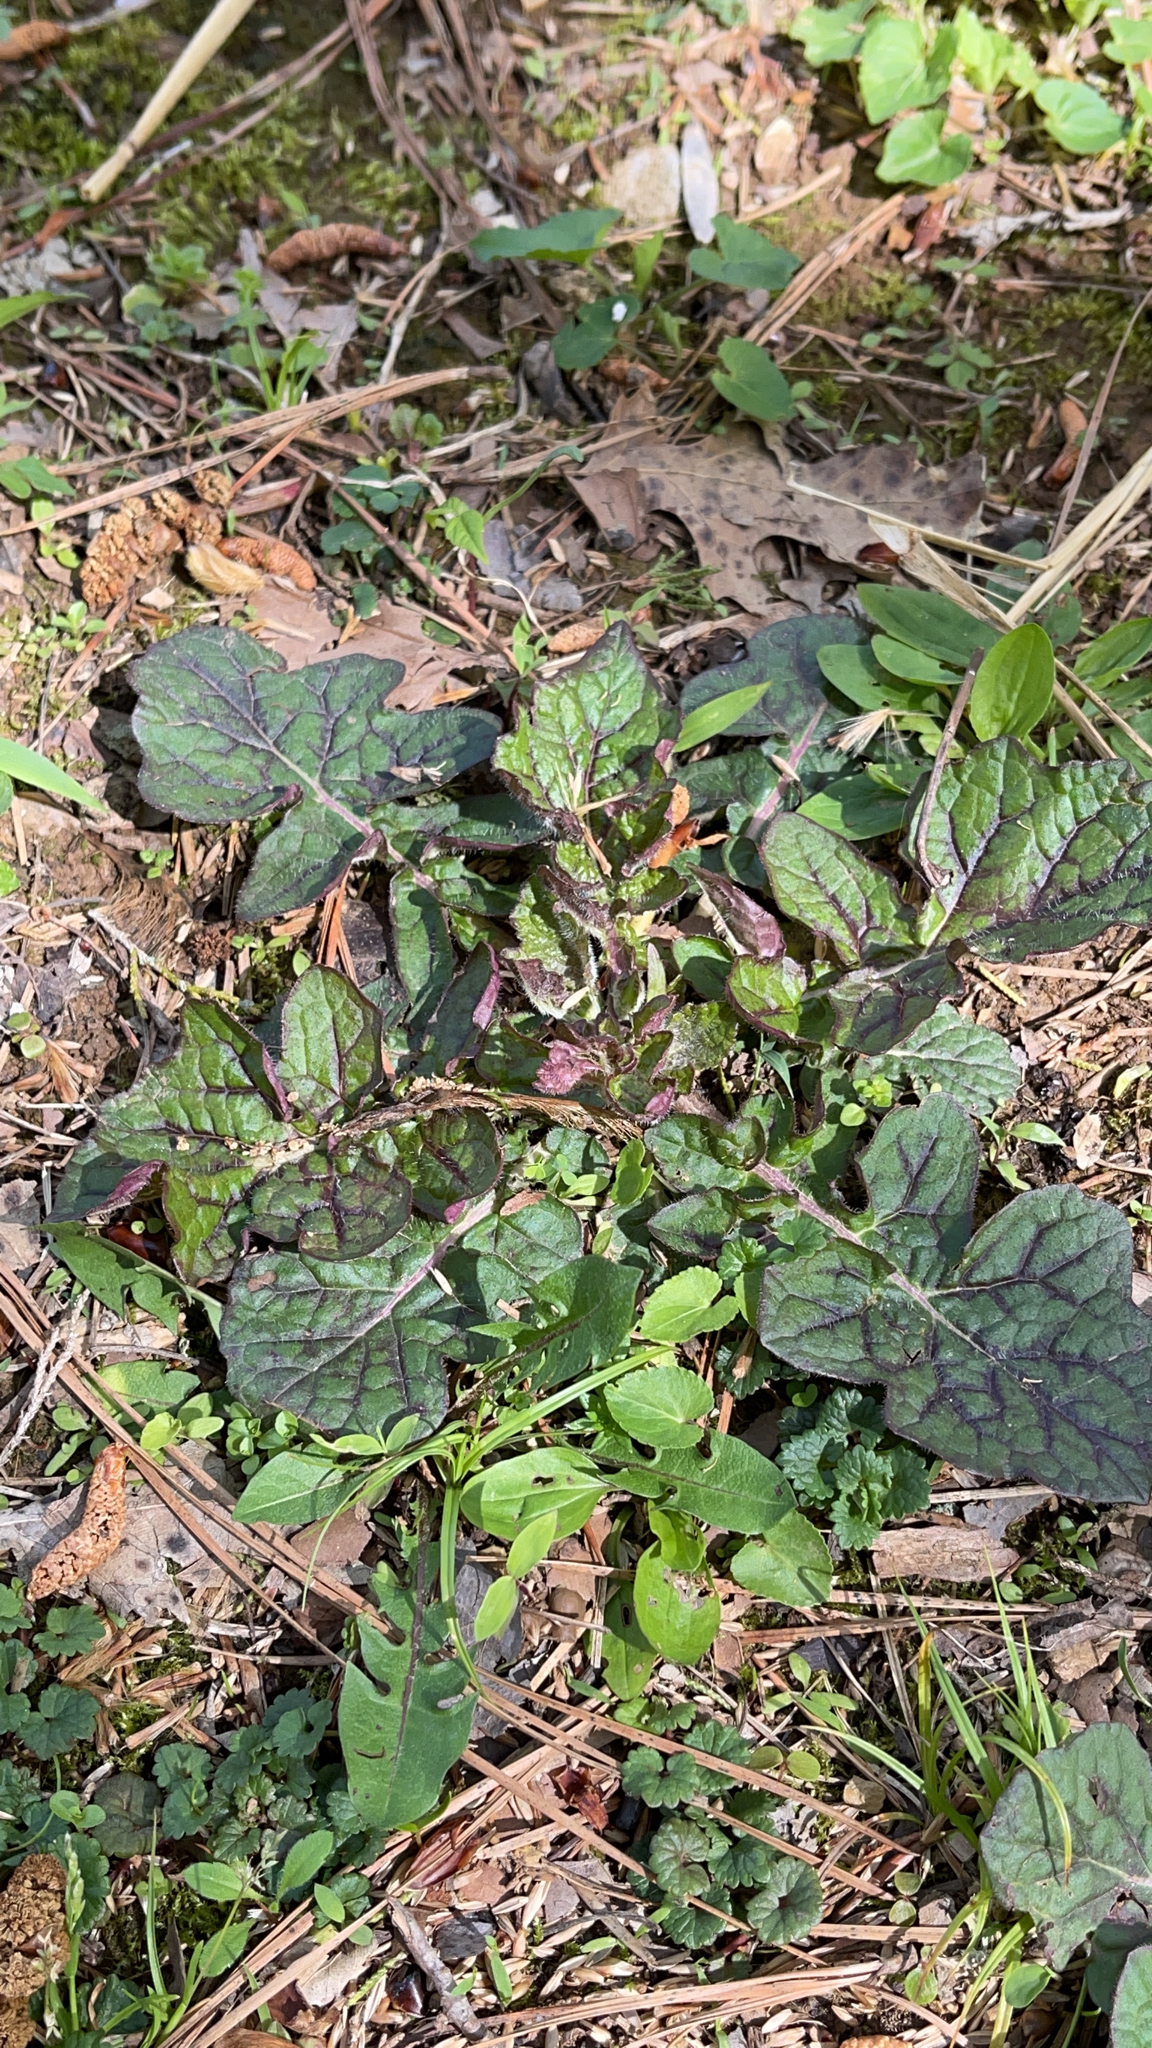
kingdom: Plantae
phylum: Tracheophyta
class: Magnoliopsida
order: Lamiales
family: Lamiaceae
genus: Salvia
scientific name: Salvia lyrata
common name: Cancerweed
